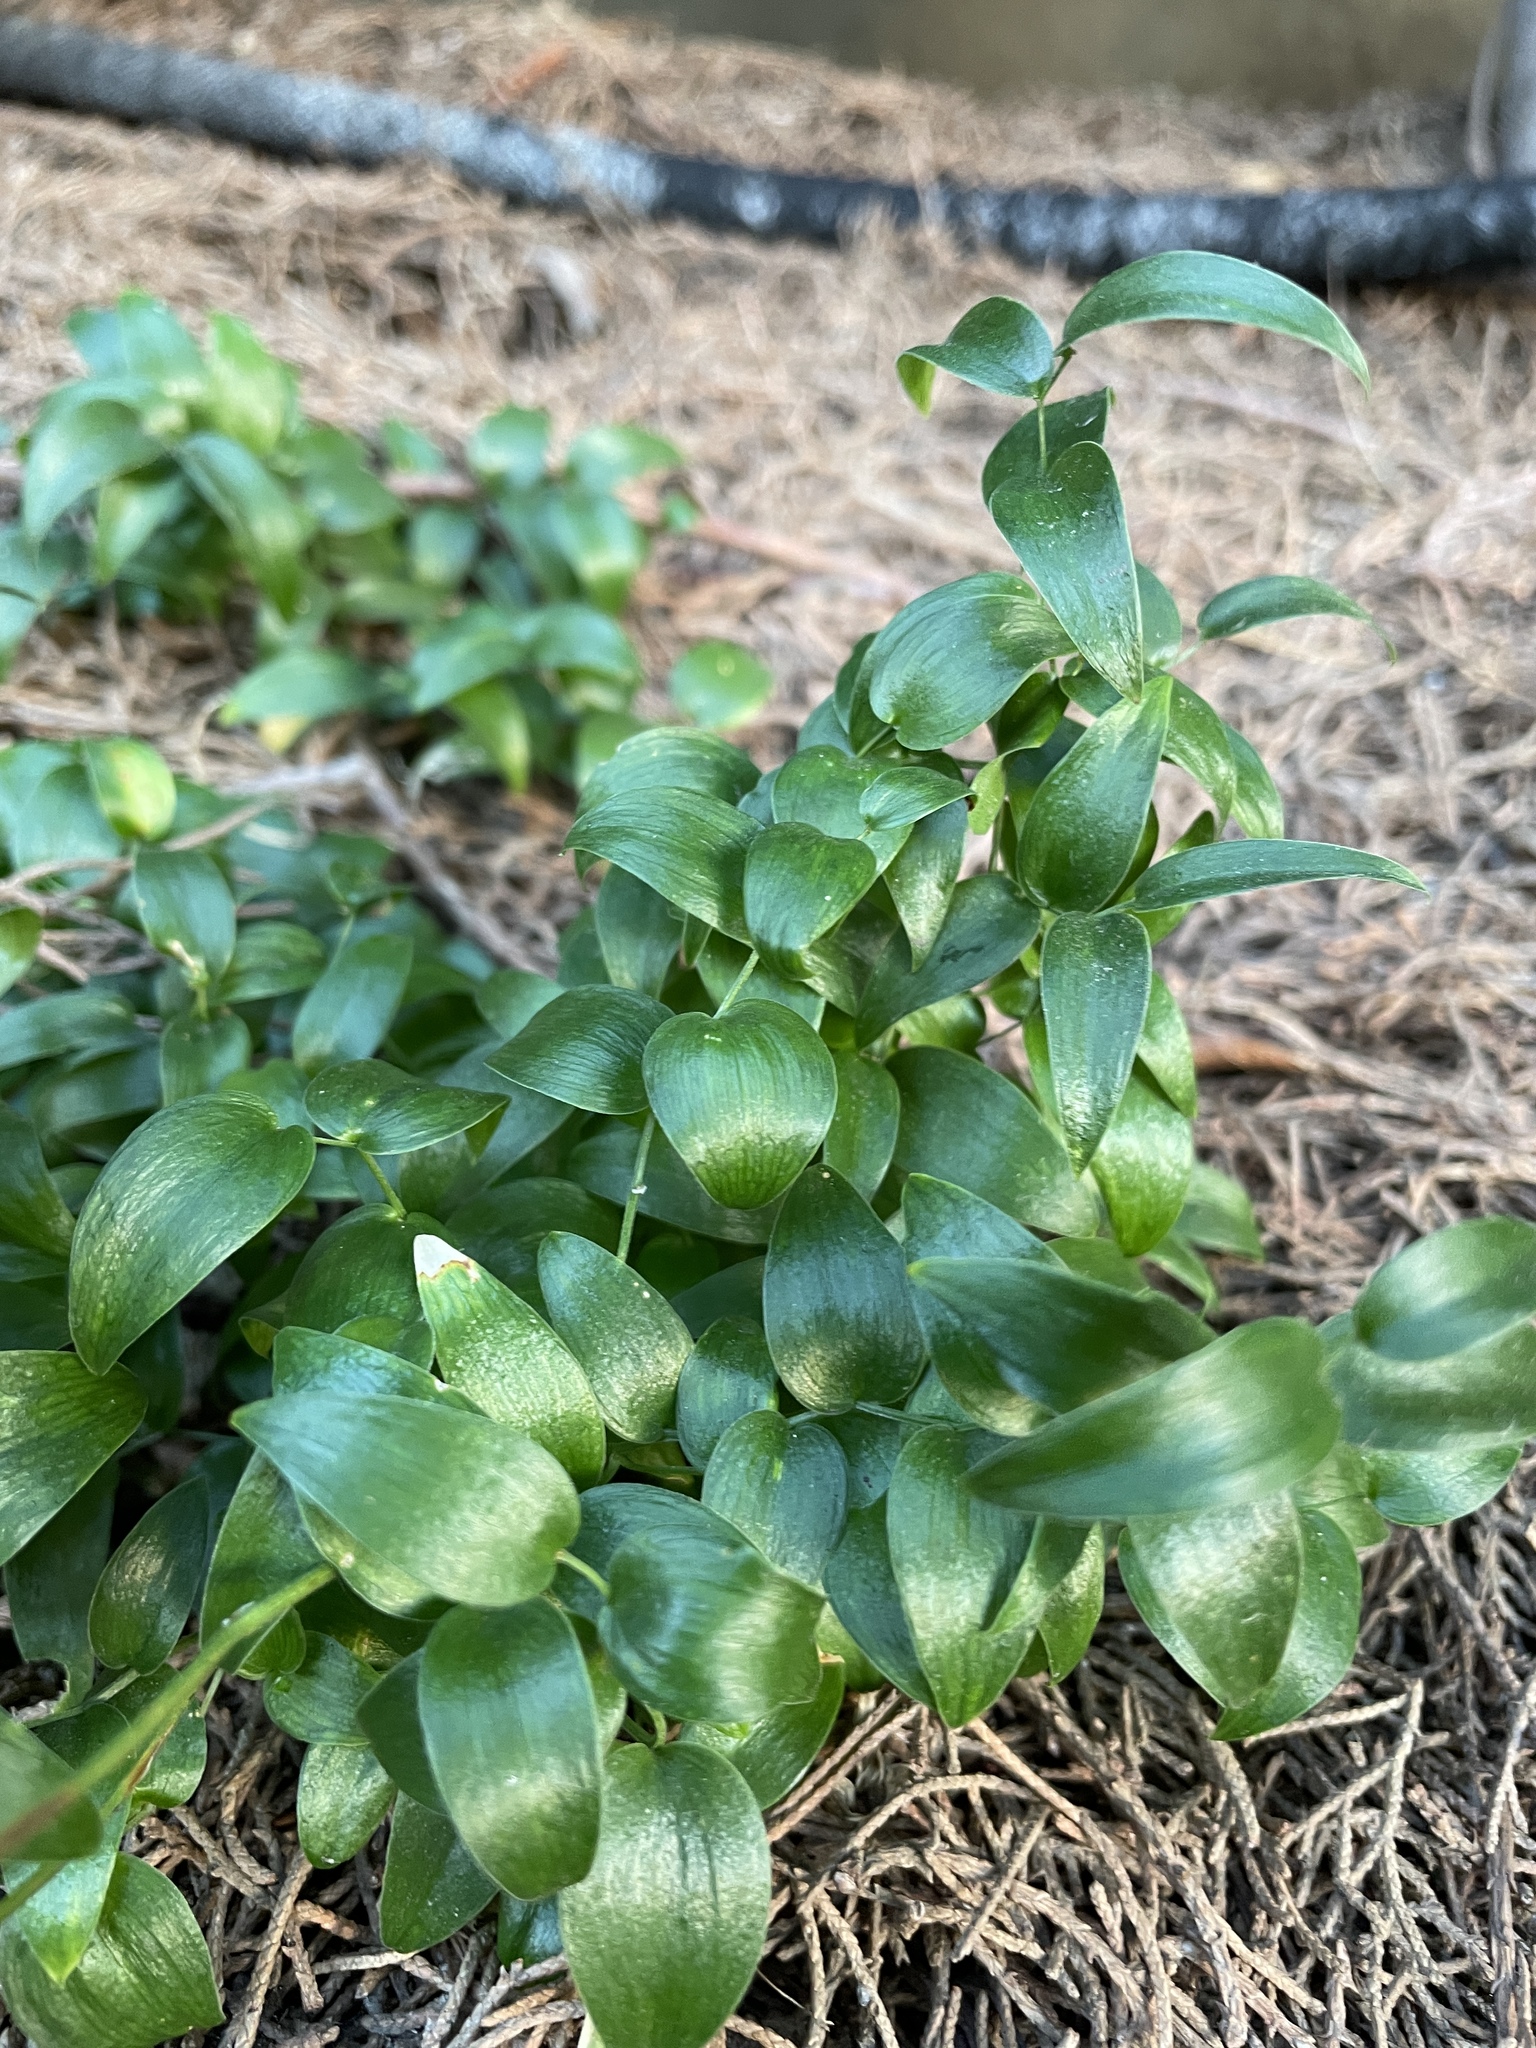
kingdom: Plantae
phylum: Tracheophyta
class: Liliopsida
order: Asparagales
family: Asparagaceae
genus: Asparagus
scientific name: Asparagus asparagoides
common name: African asparagus fern
